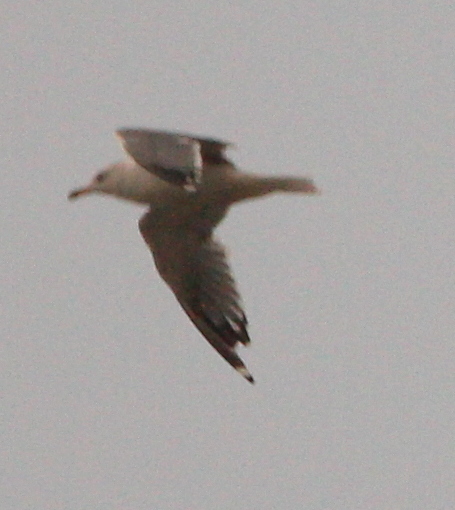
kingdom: Animalia
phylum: Chordata
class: Aves
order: Charadriiformes
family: Laridae
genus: Larus
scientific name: Larus armenicus
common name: Armenian gull
